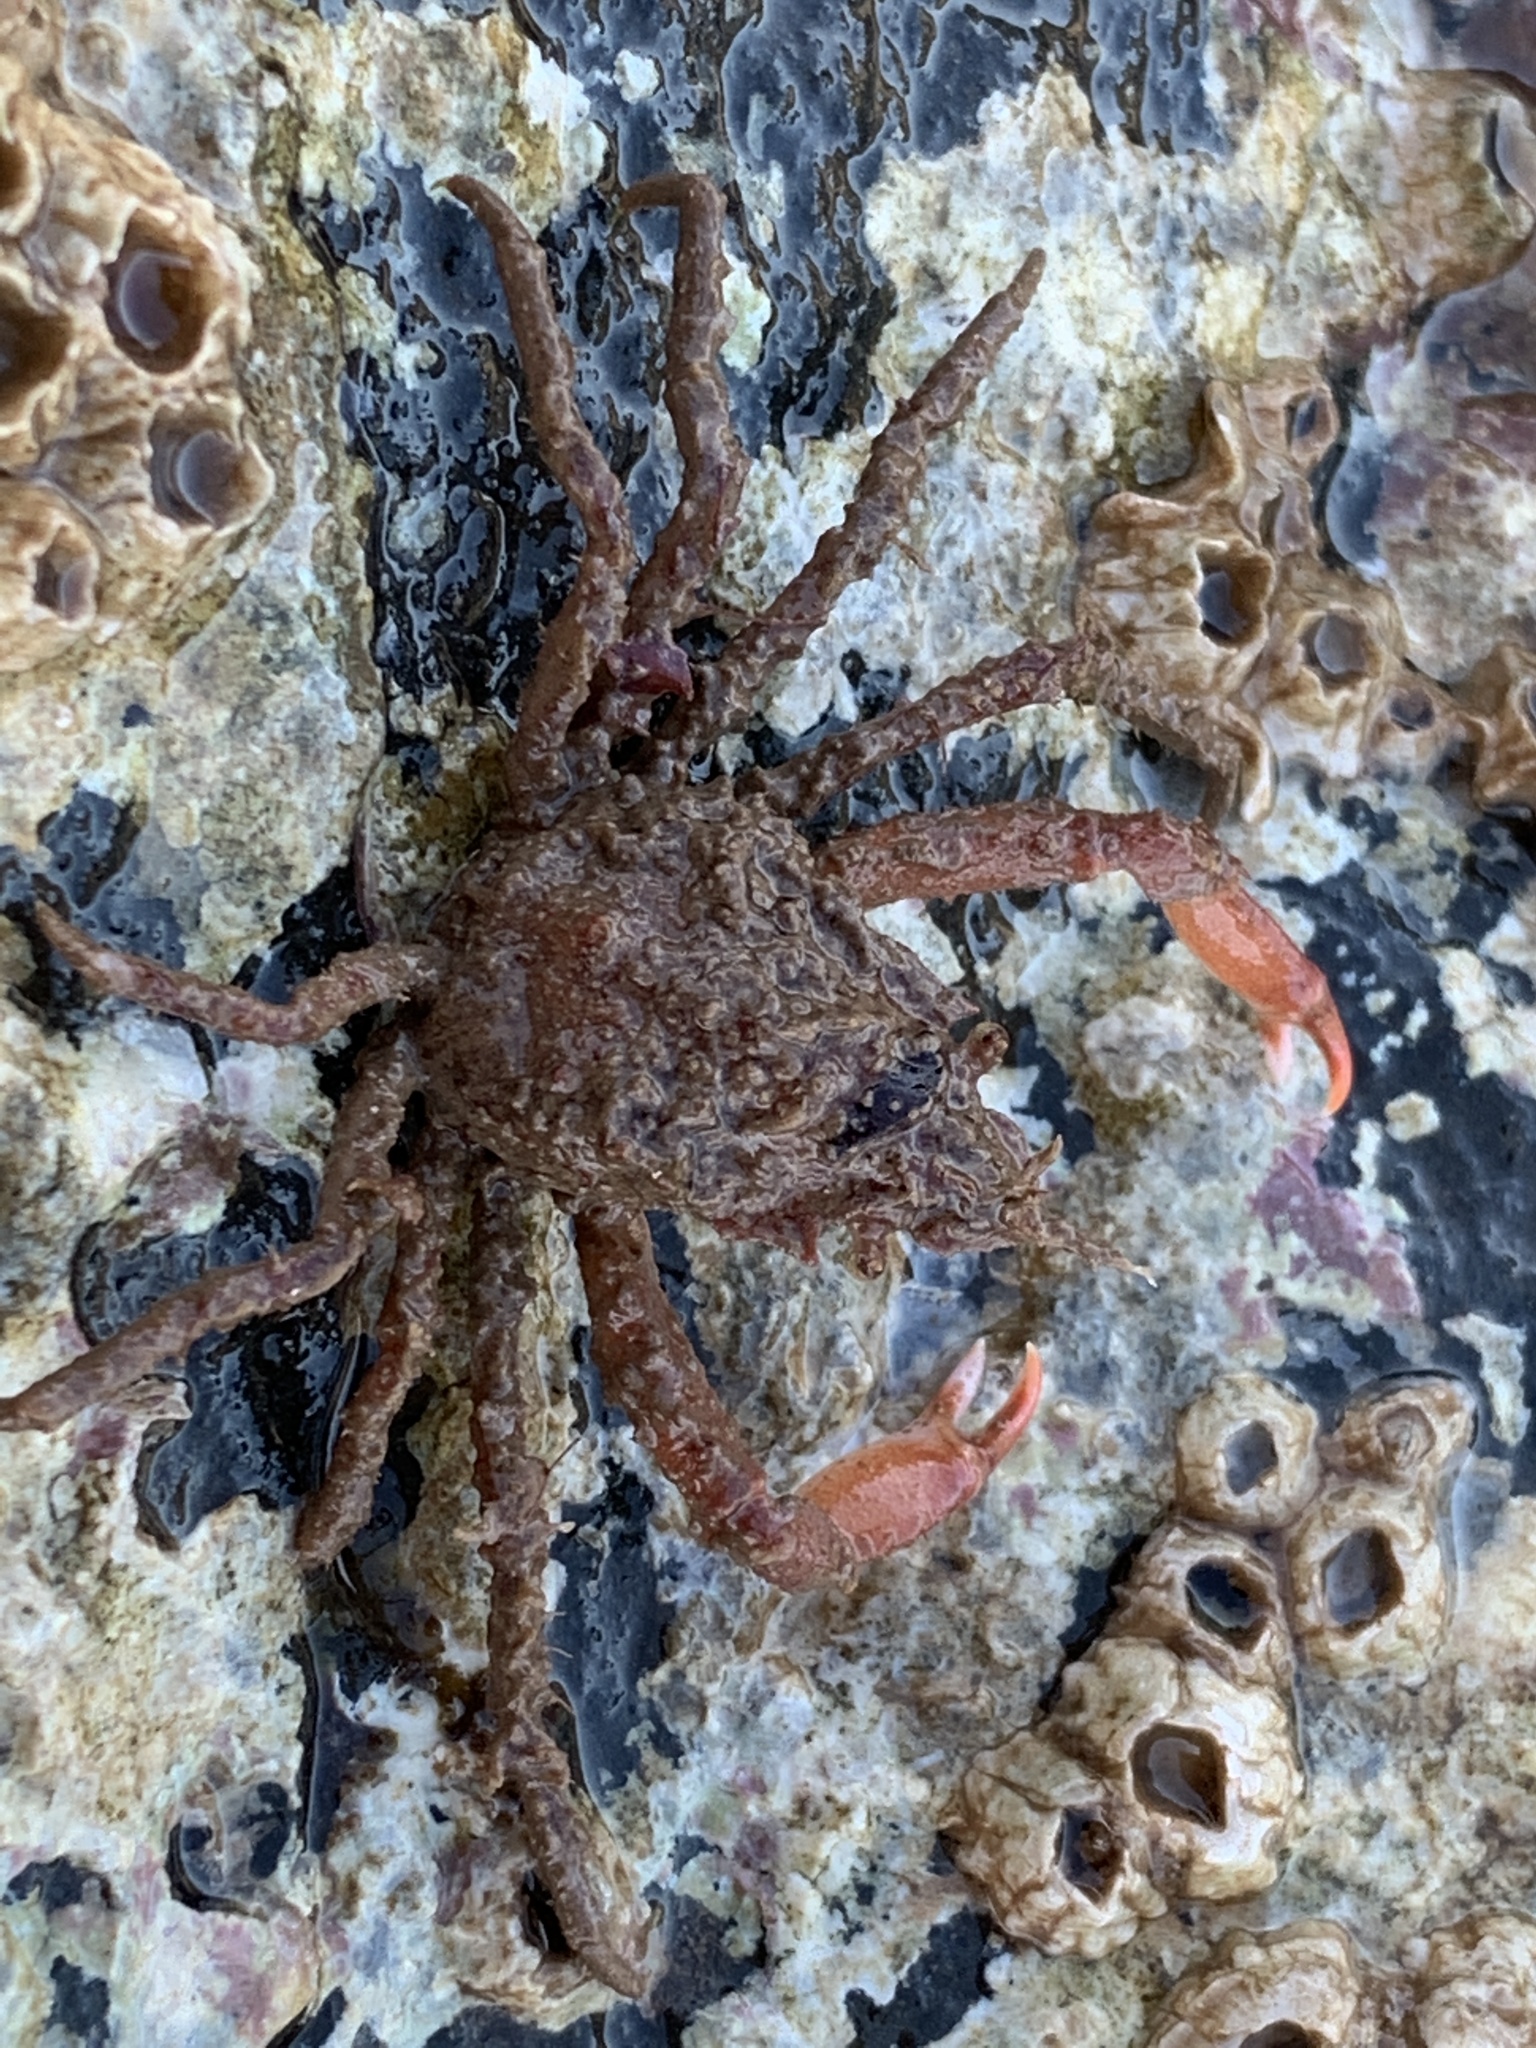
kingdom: Animalia
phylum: Arthropoda
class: Malacostraca
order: Decapoda
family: Oregoniidae
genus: Hyas
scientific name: Hyas araneus
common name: Great spider crab
